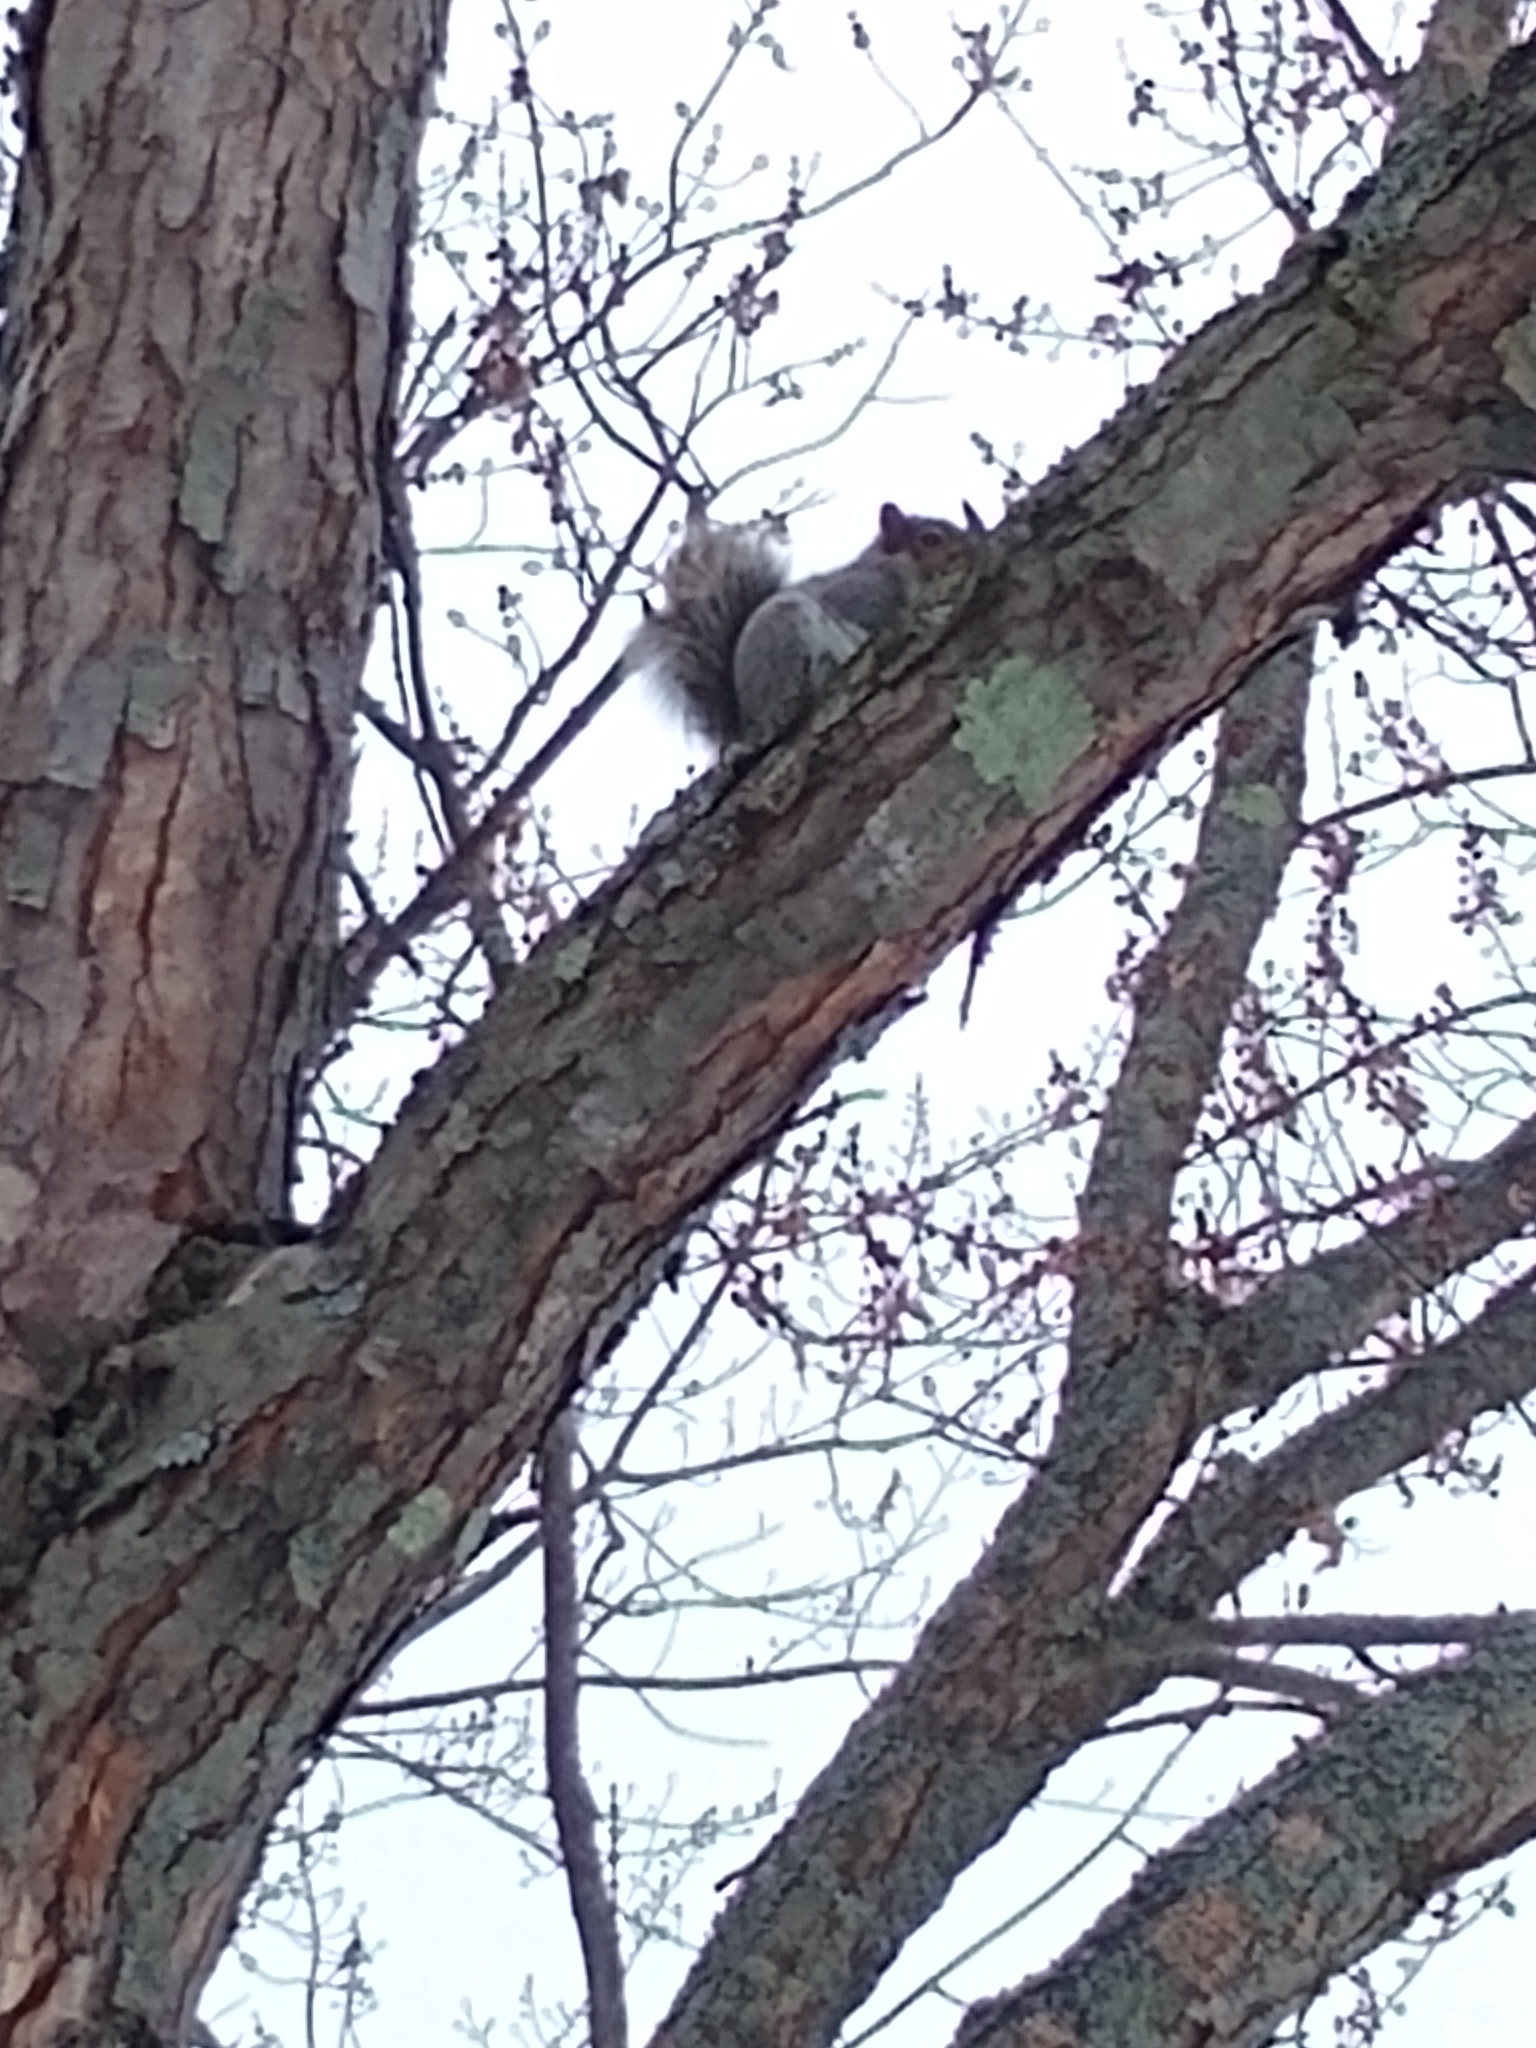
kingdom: Animalia
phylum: Chordata
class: Mammalia
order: Rodentia
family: Sciuridae
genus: Sciurus
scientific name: Sciurus carolinensis
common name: Eastern gray squirrel
